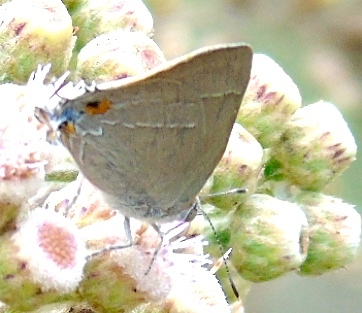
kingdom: Animalia
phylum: Arthropoda
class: Insecta
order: Lepidoptera
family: Lycaenidae
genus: Rekoa
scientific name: Rekoa
